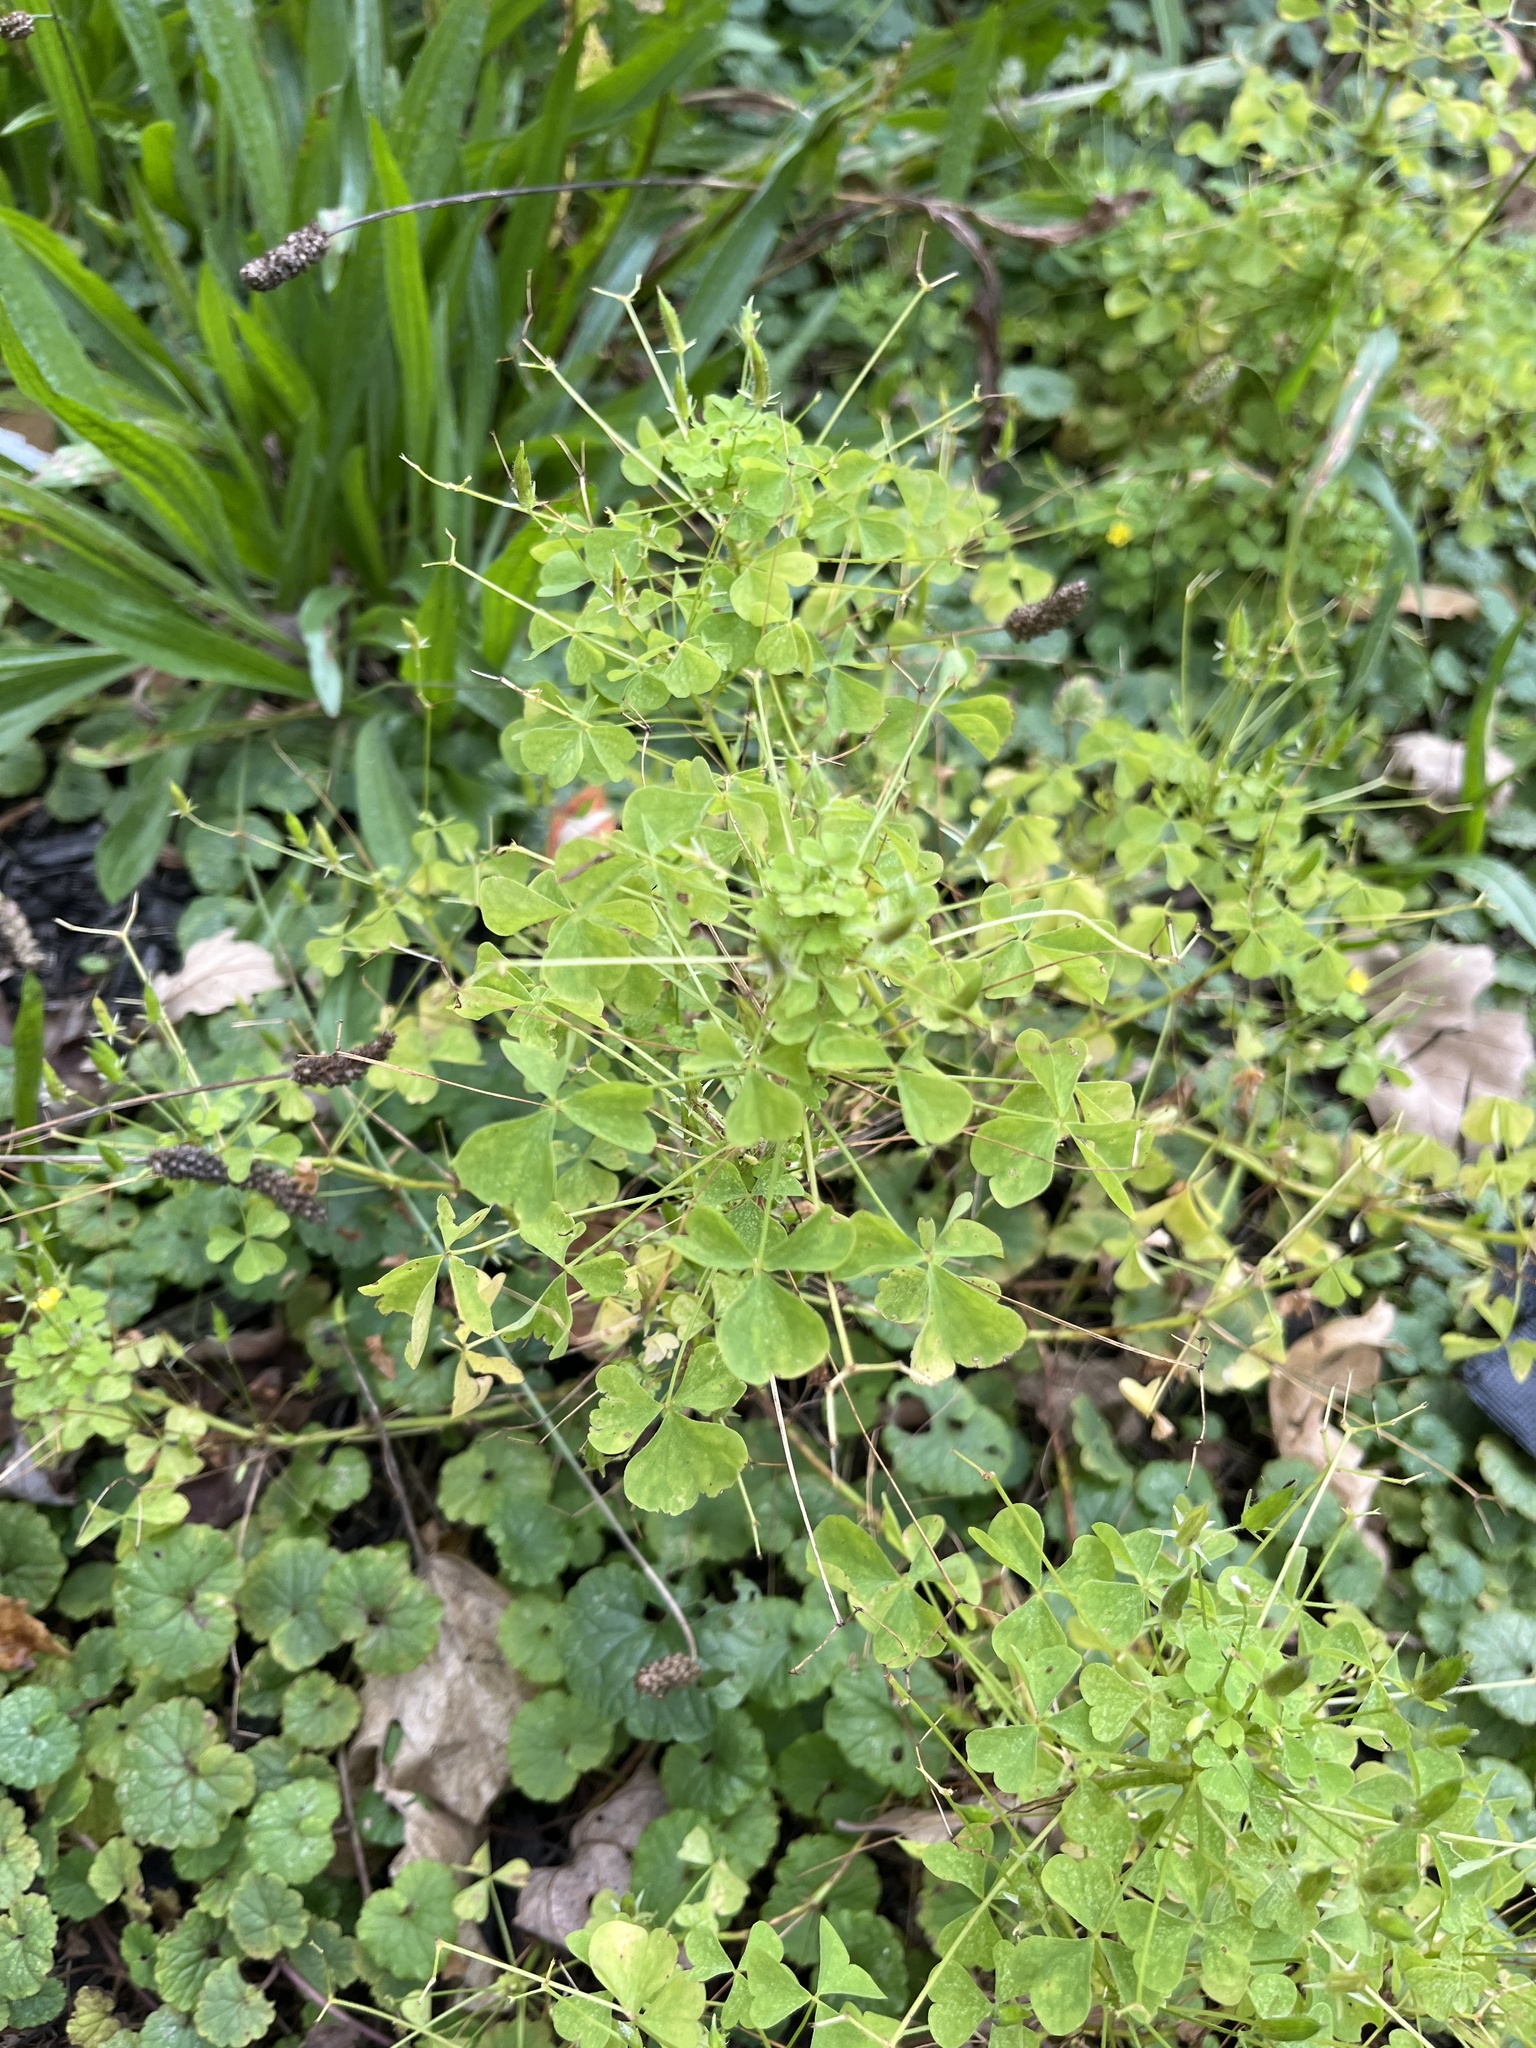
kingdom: Plantae
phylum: Tracheophyta
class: Magnoliopsida
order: Oxalidales
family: Oxalidaceae
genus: Oxalis
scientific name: Oxalis stricta
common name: Upright yellow-sorrel
